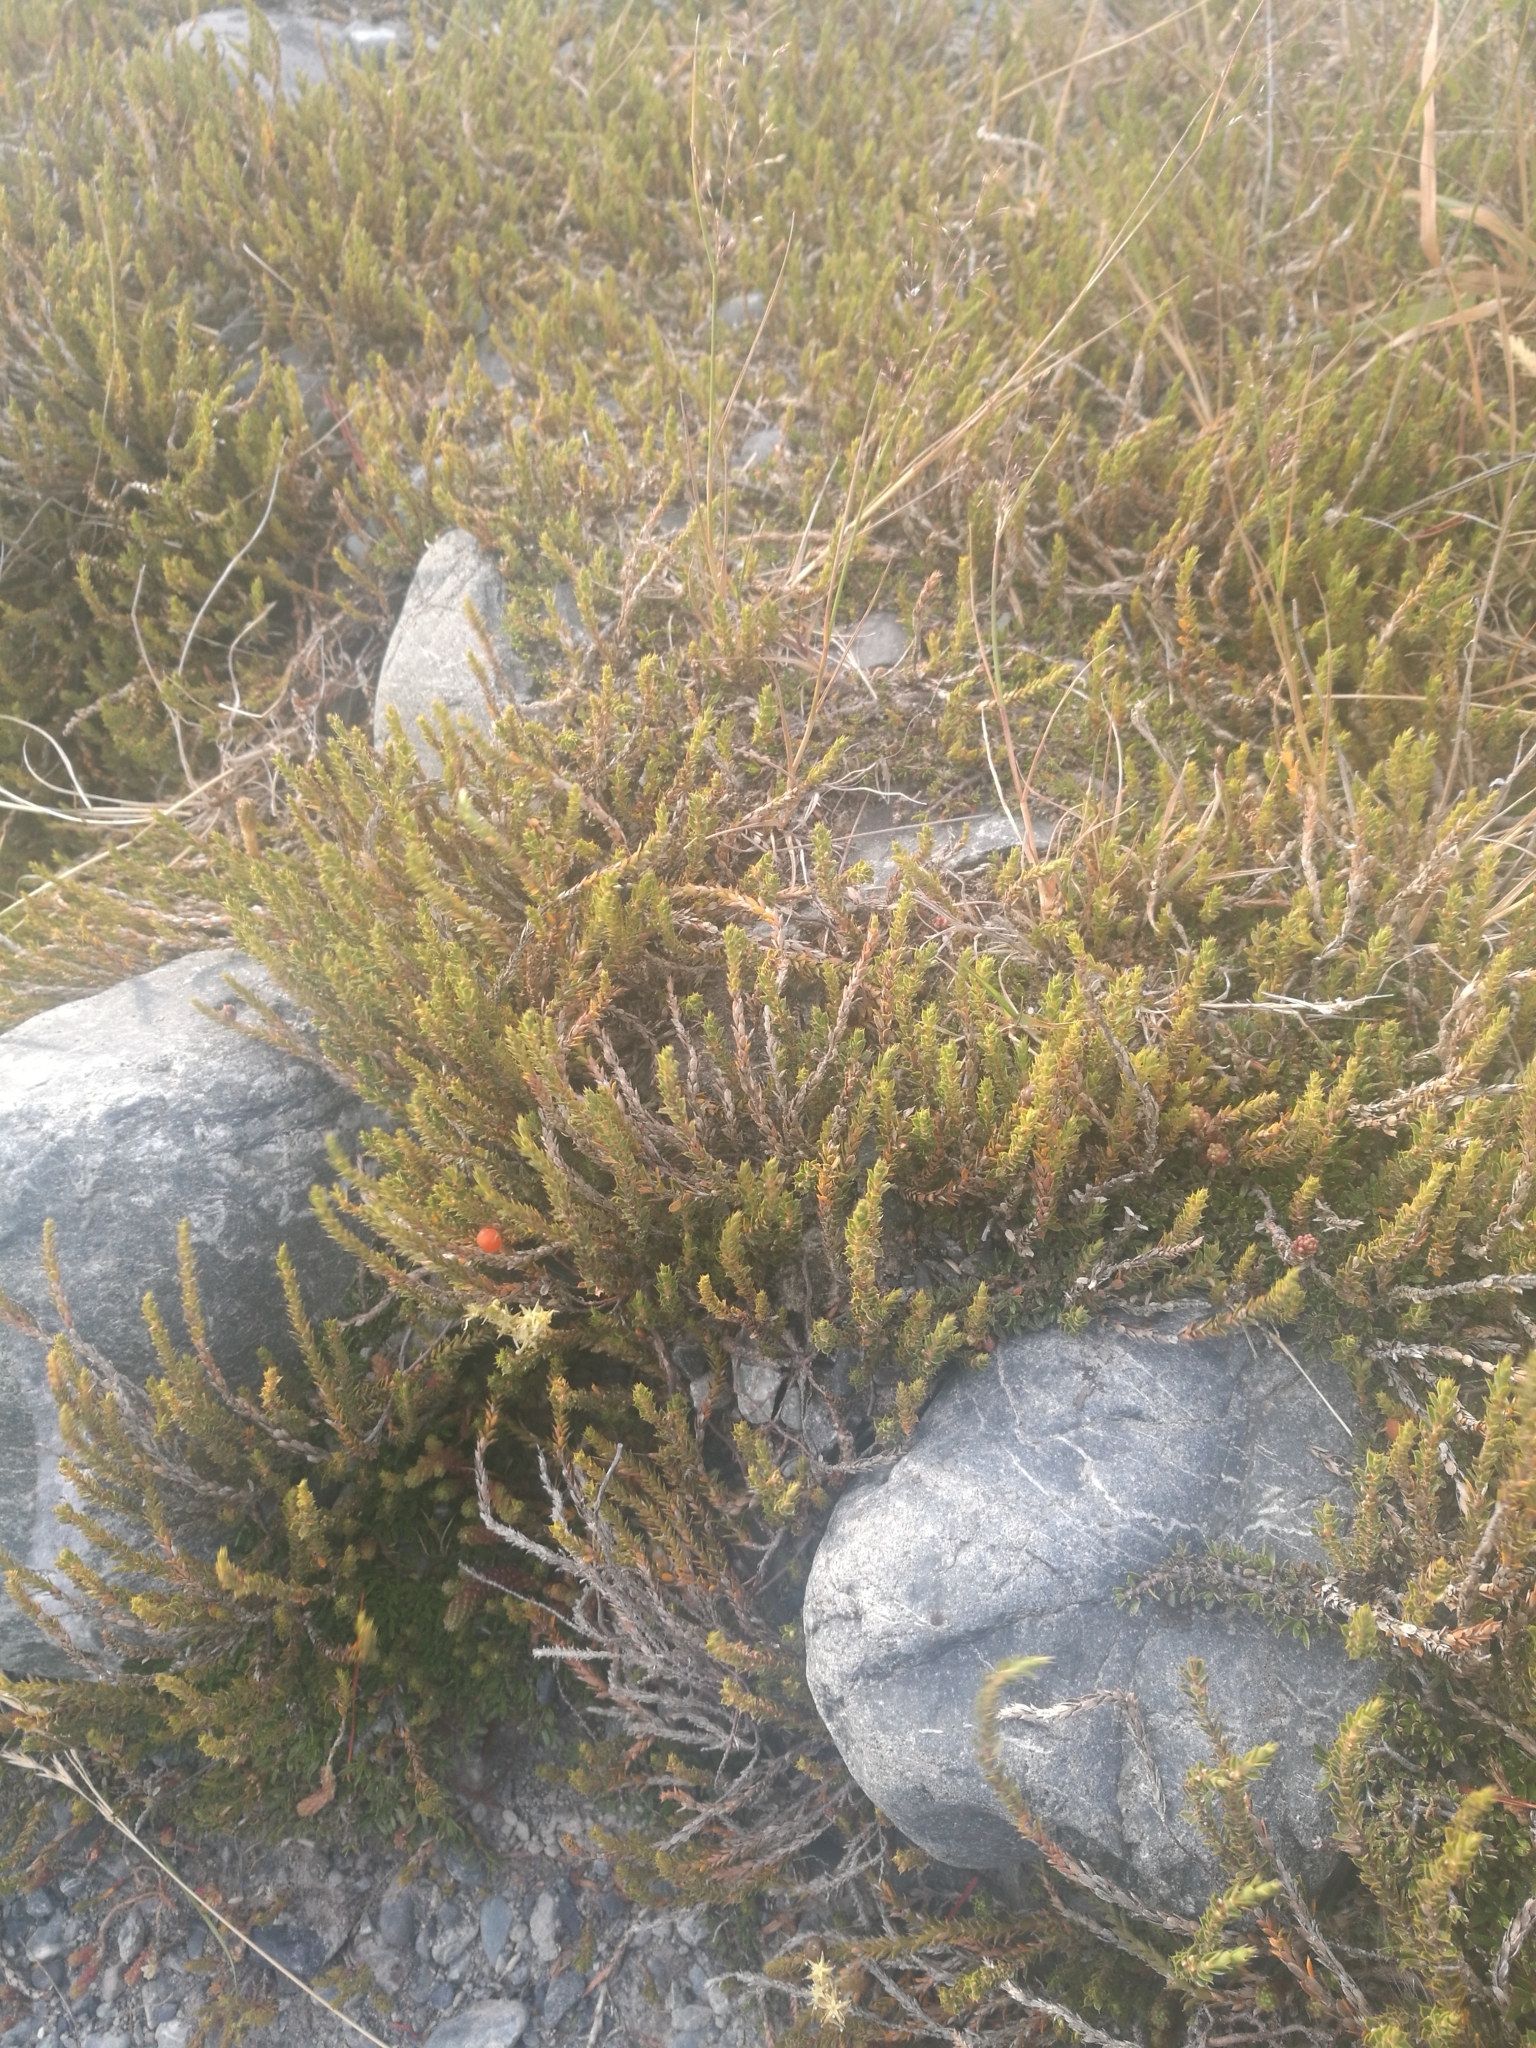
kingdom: Plantae
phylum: Tracheophyta
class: Magnoliopsida
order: Ericales
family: Ericaceae
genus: Styphelia
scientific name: Styphelia nesophila
